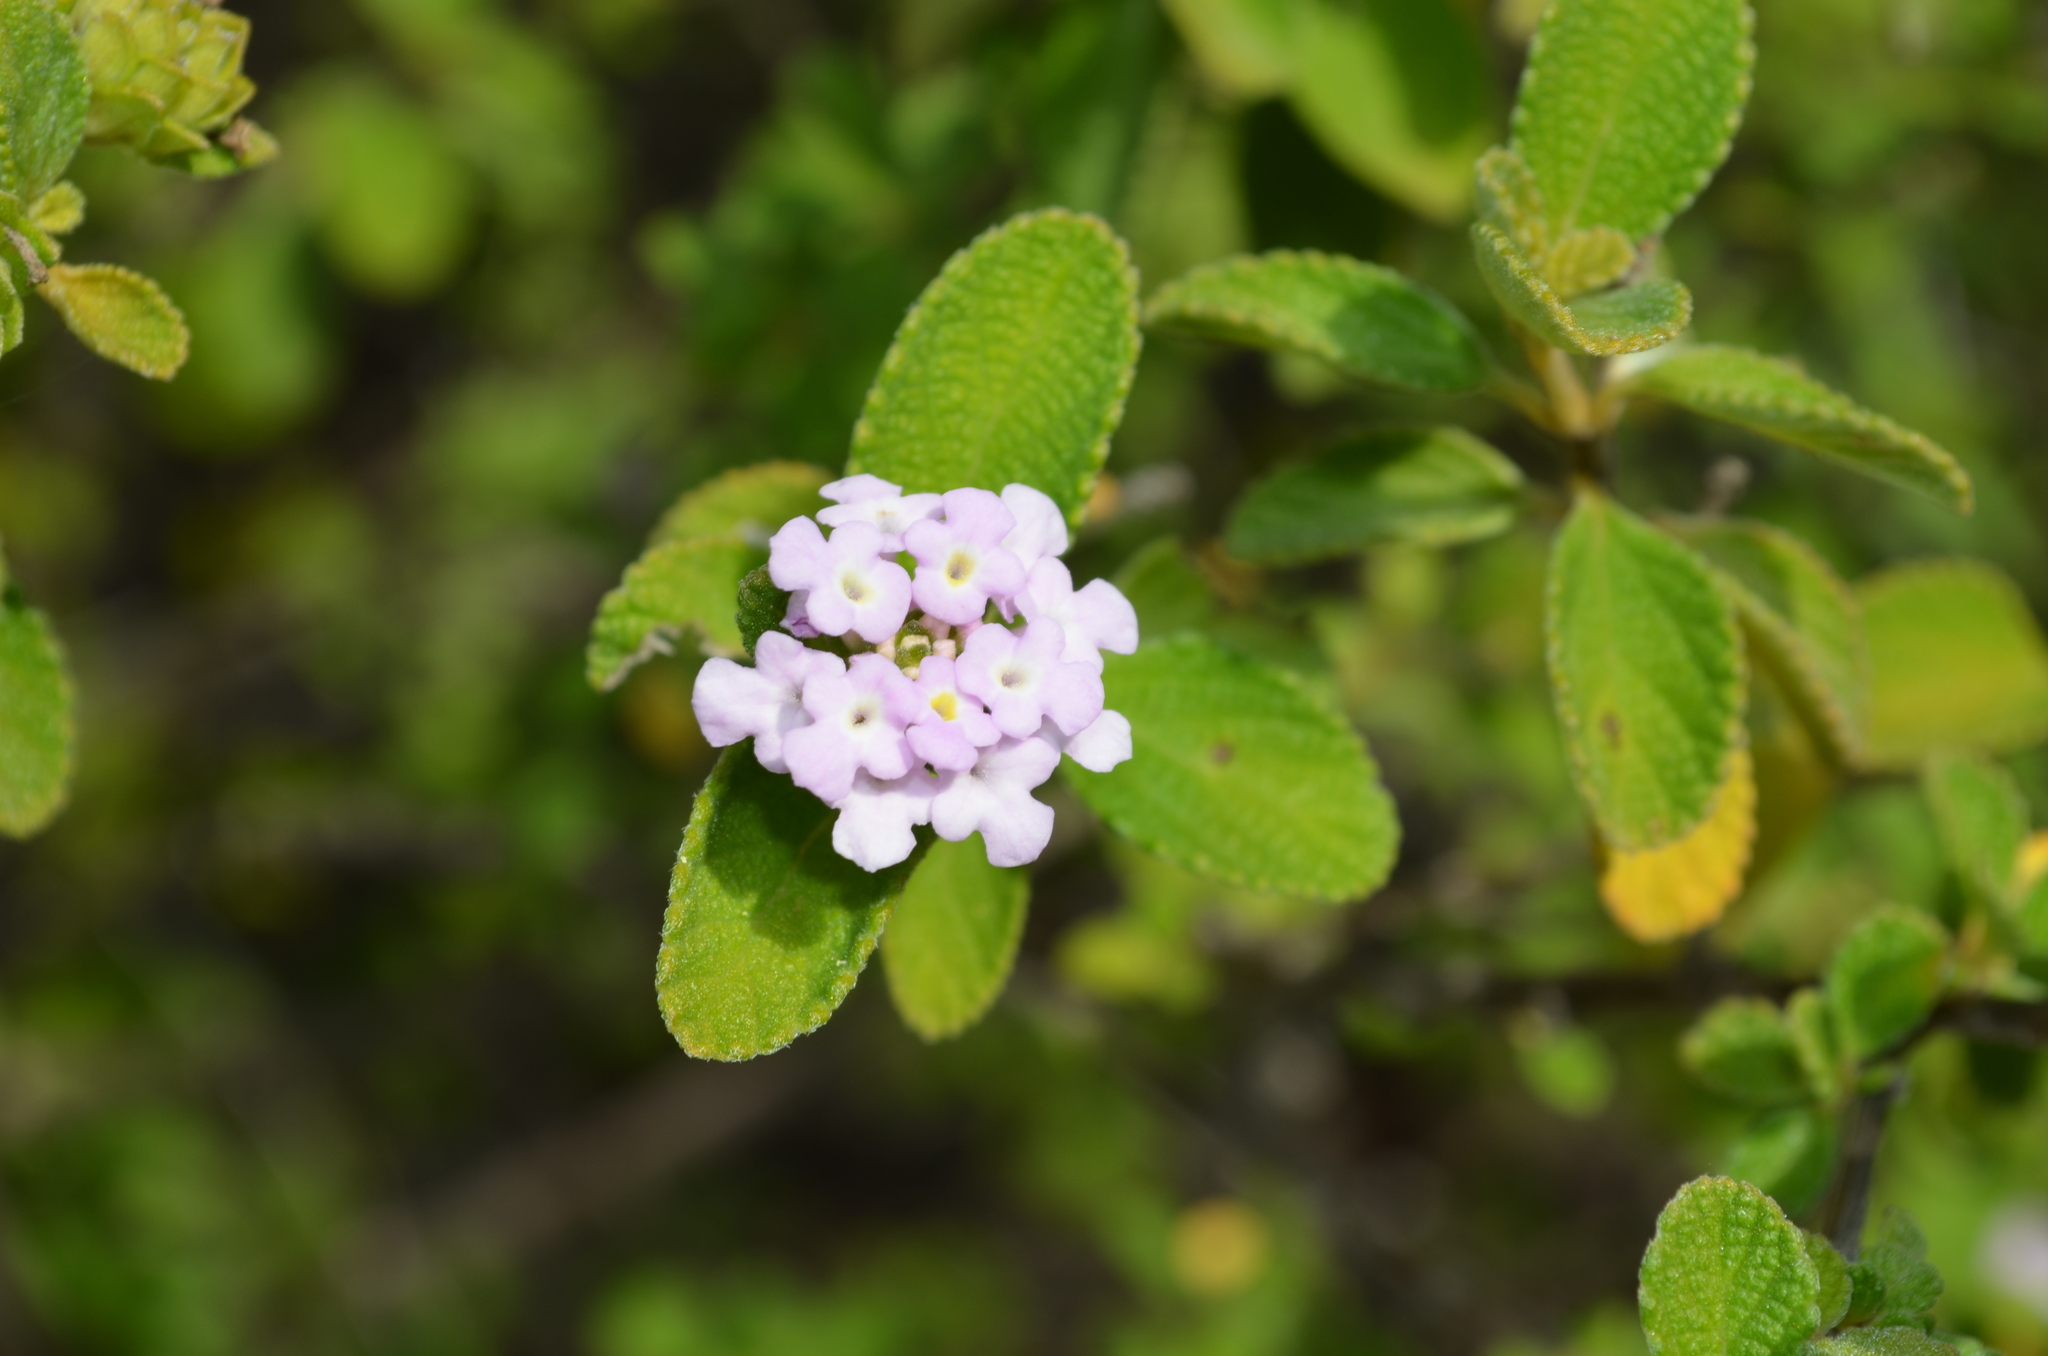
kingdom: Plantae
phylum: Tracheophyta
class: Magnoliopsida
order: Lamiales
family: Verbenaceae
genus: Lantana
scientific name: Lantana involucrata
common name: Black sage
